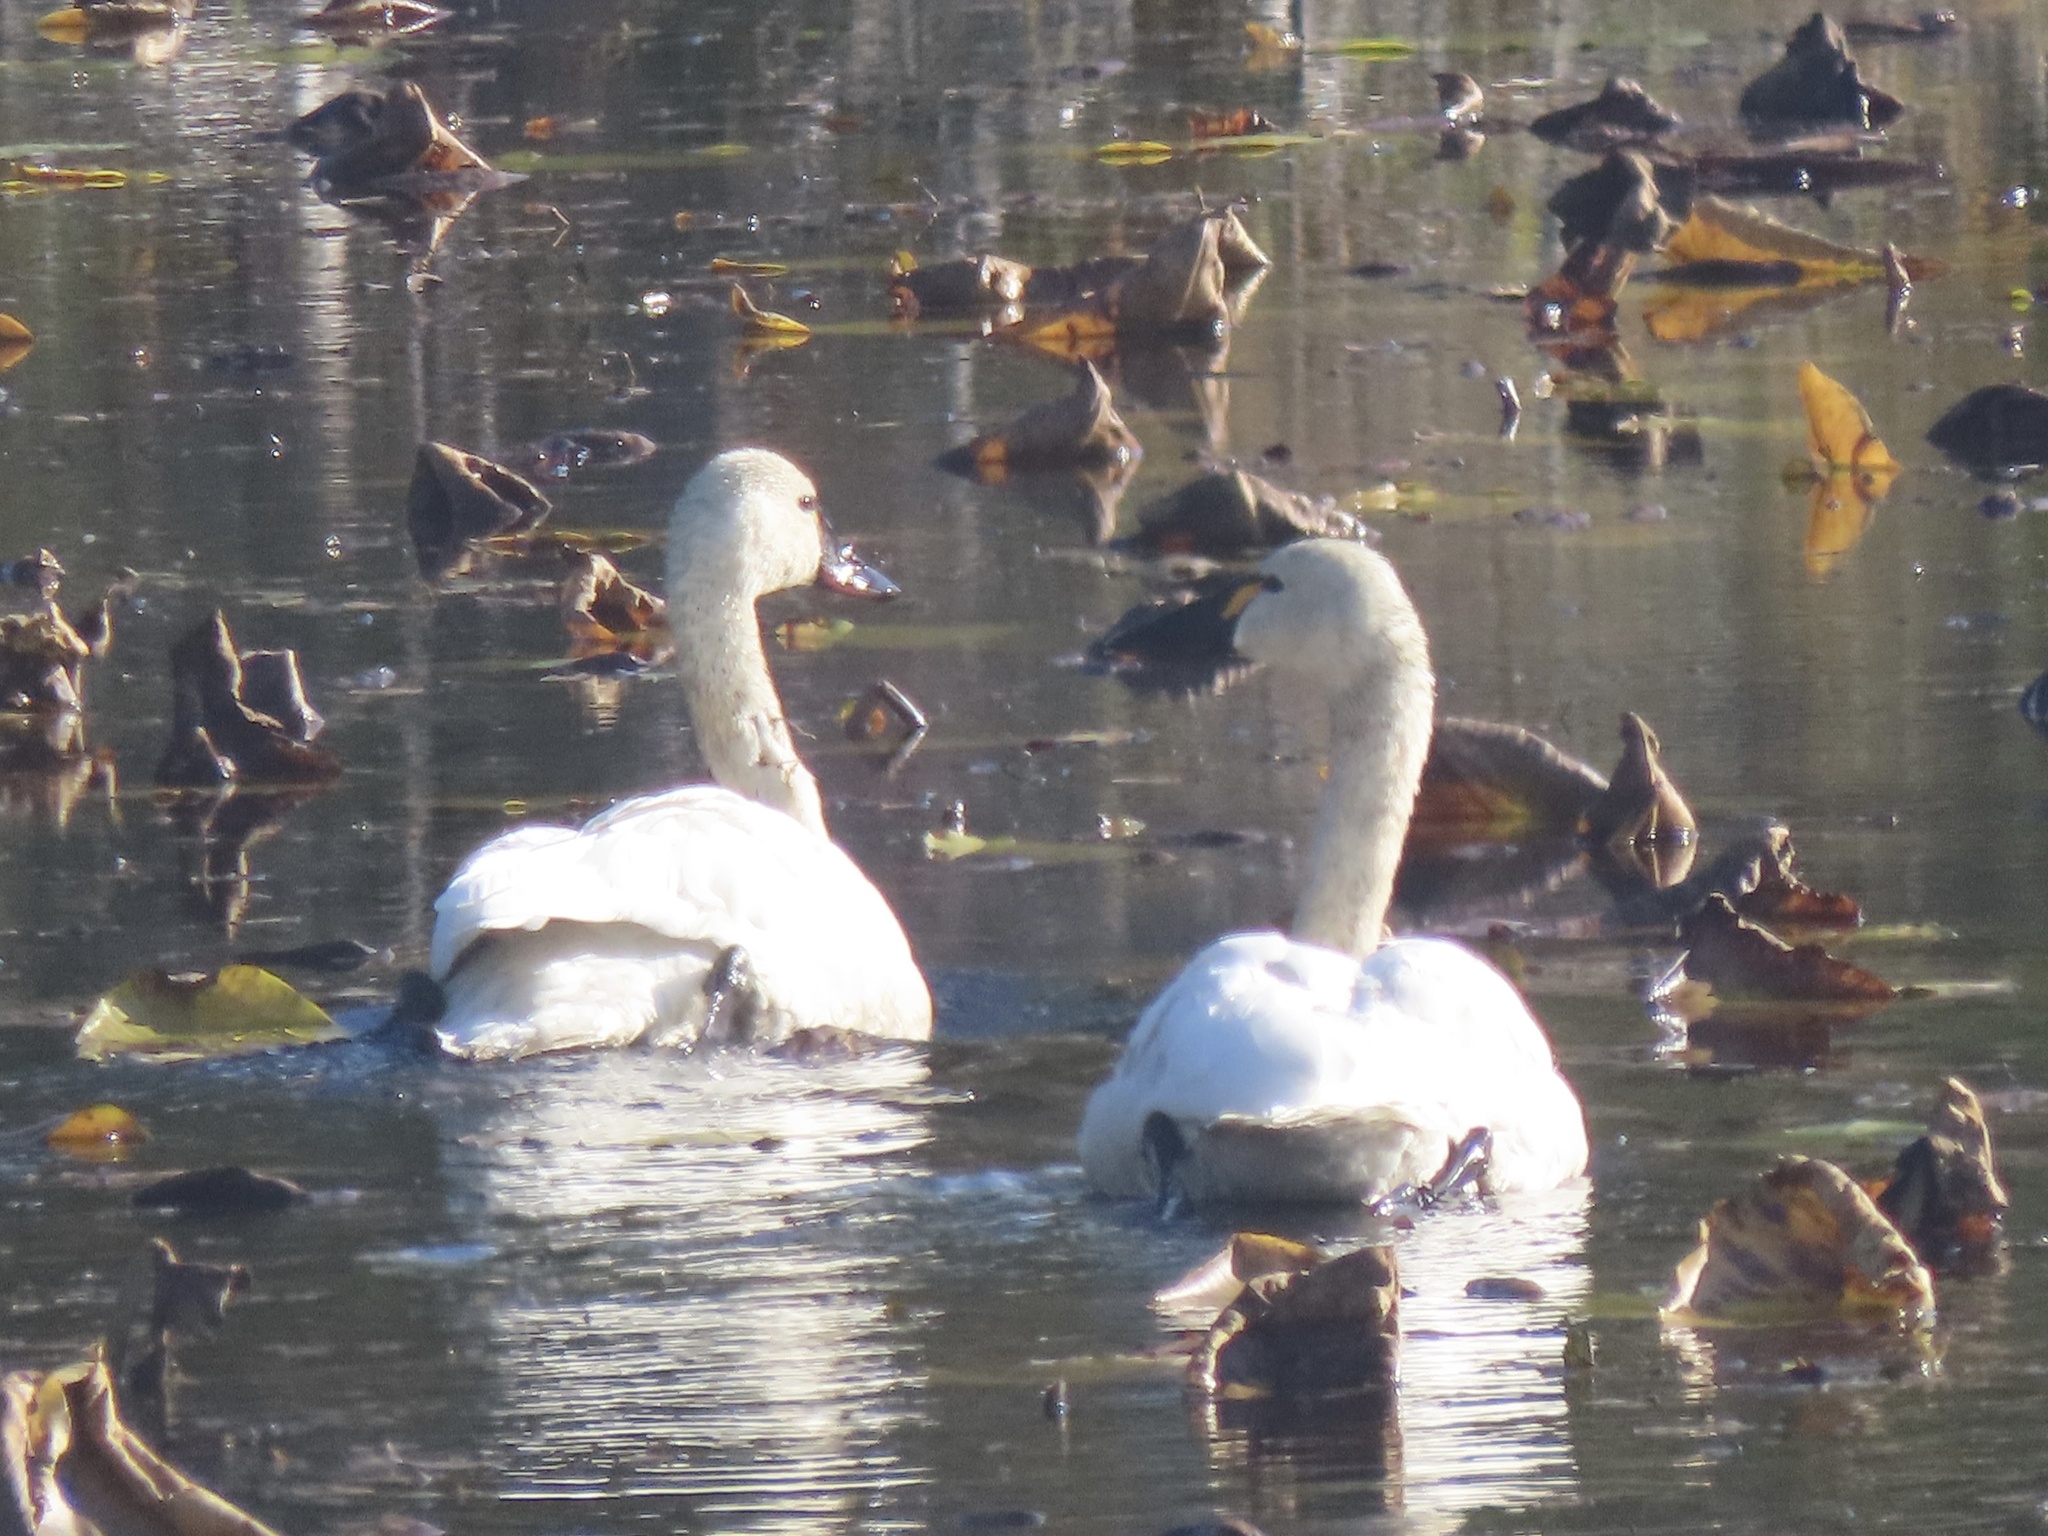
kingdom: Animalia
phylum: Chordata
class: Aves
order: Anseriformes
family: Anatidae
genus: Cygnus
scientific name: Cygnus columbianus
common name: Tundra swan
